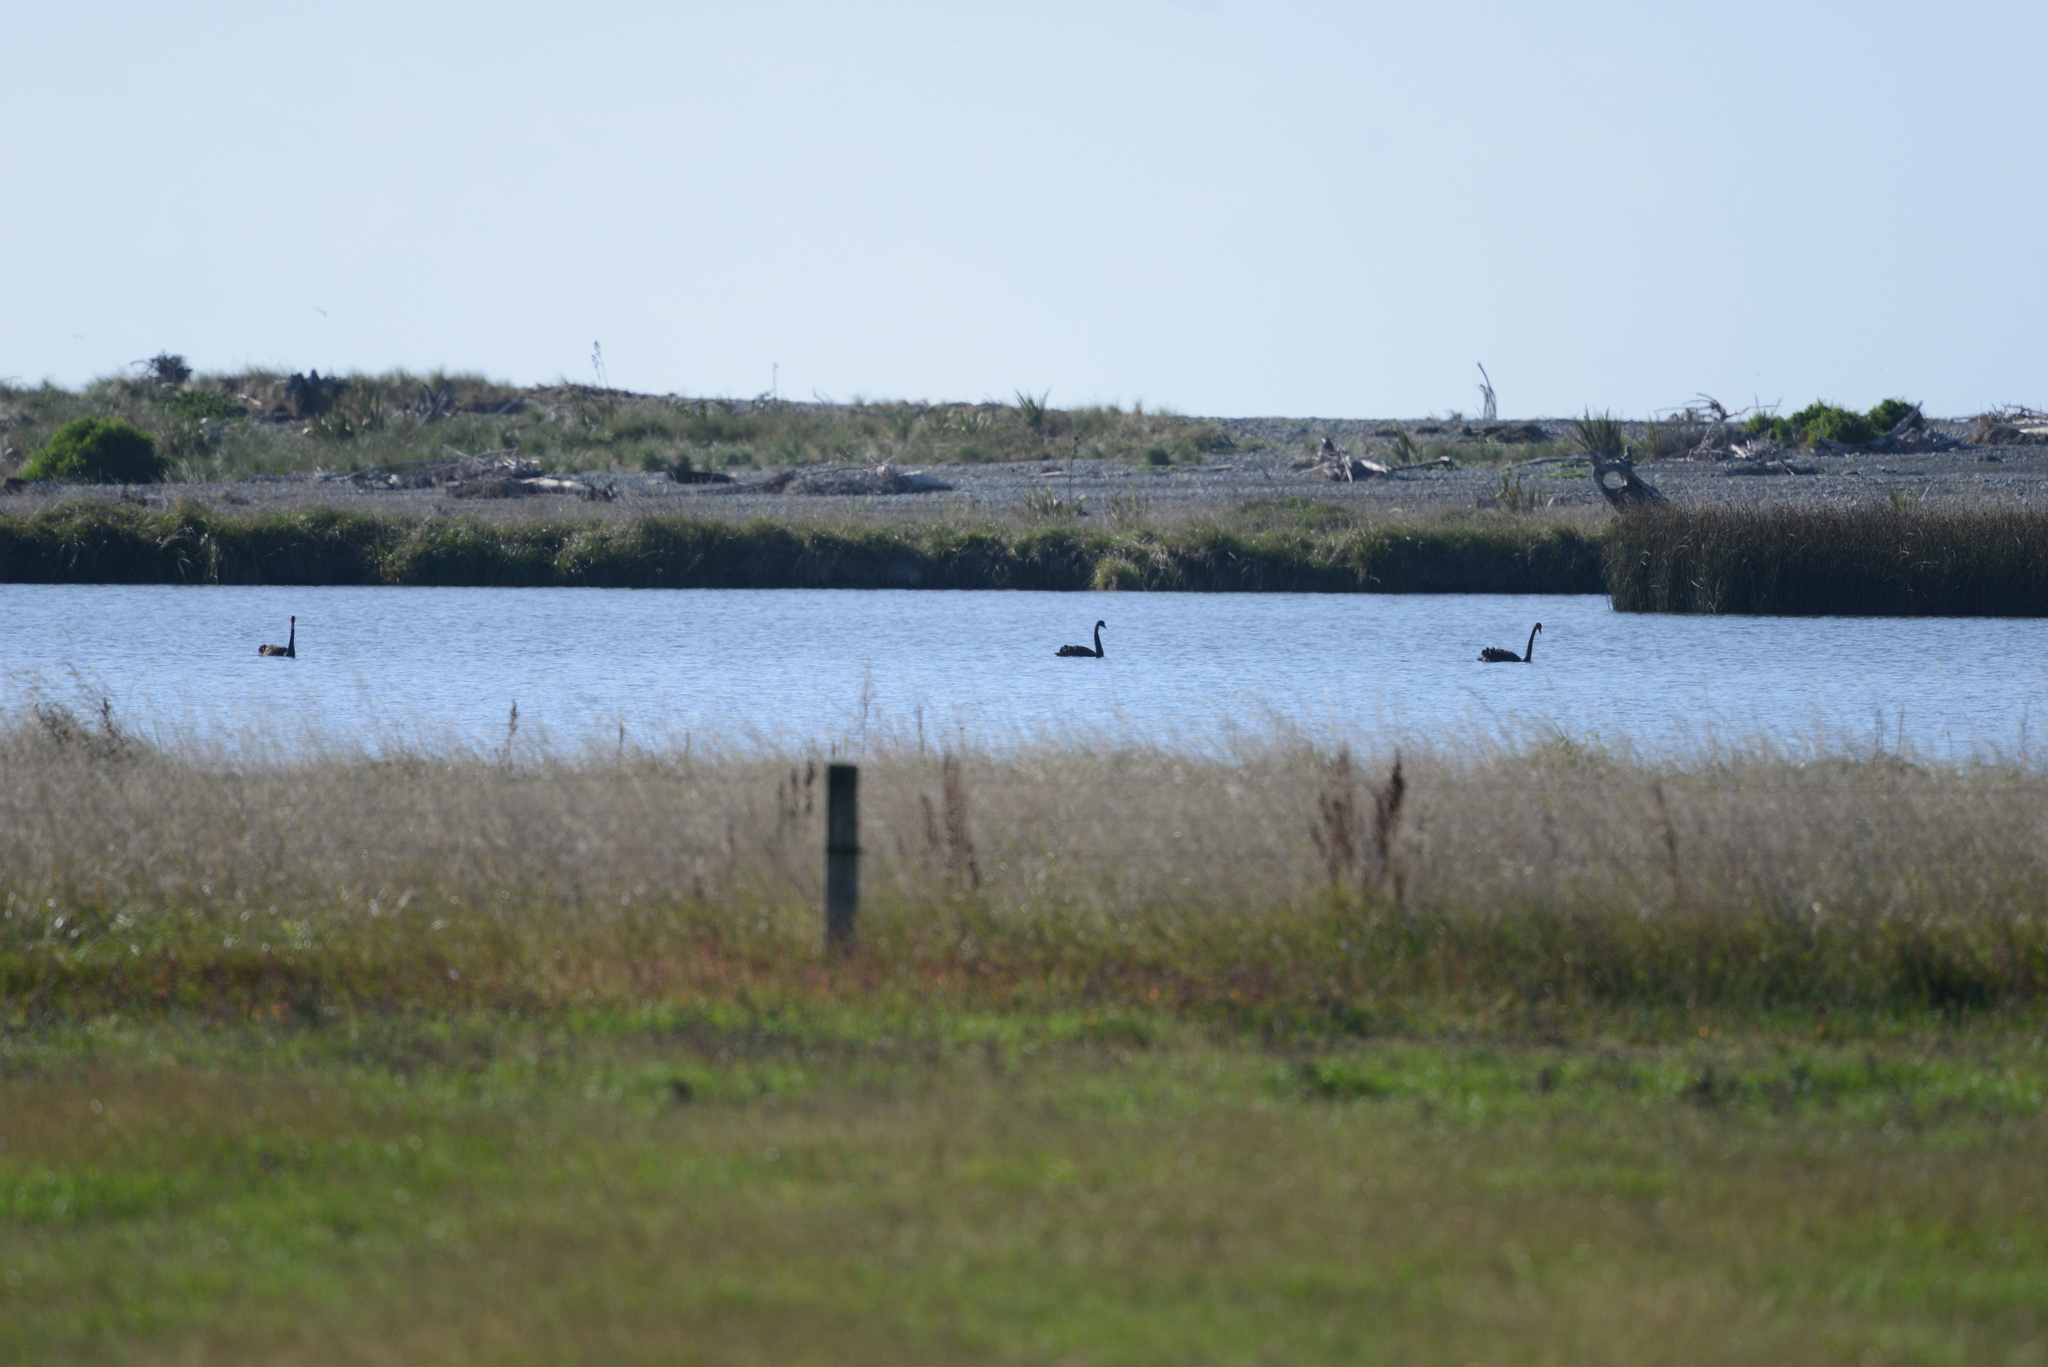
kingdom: Animalia
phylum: Chordata
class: Aves
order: Anseriformes
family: Anatidae
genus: Cygnus
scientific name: Cygnus atratus
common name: Black swan
